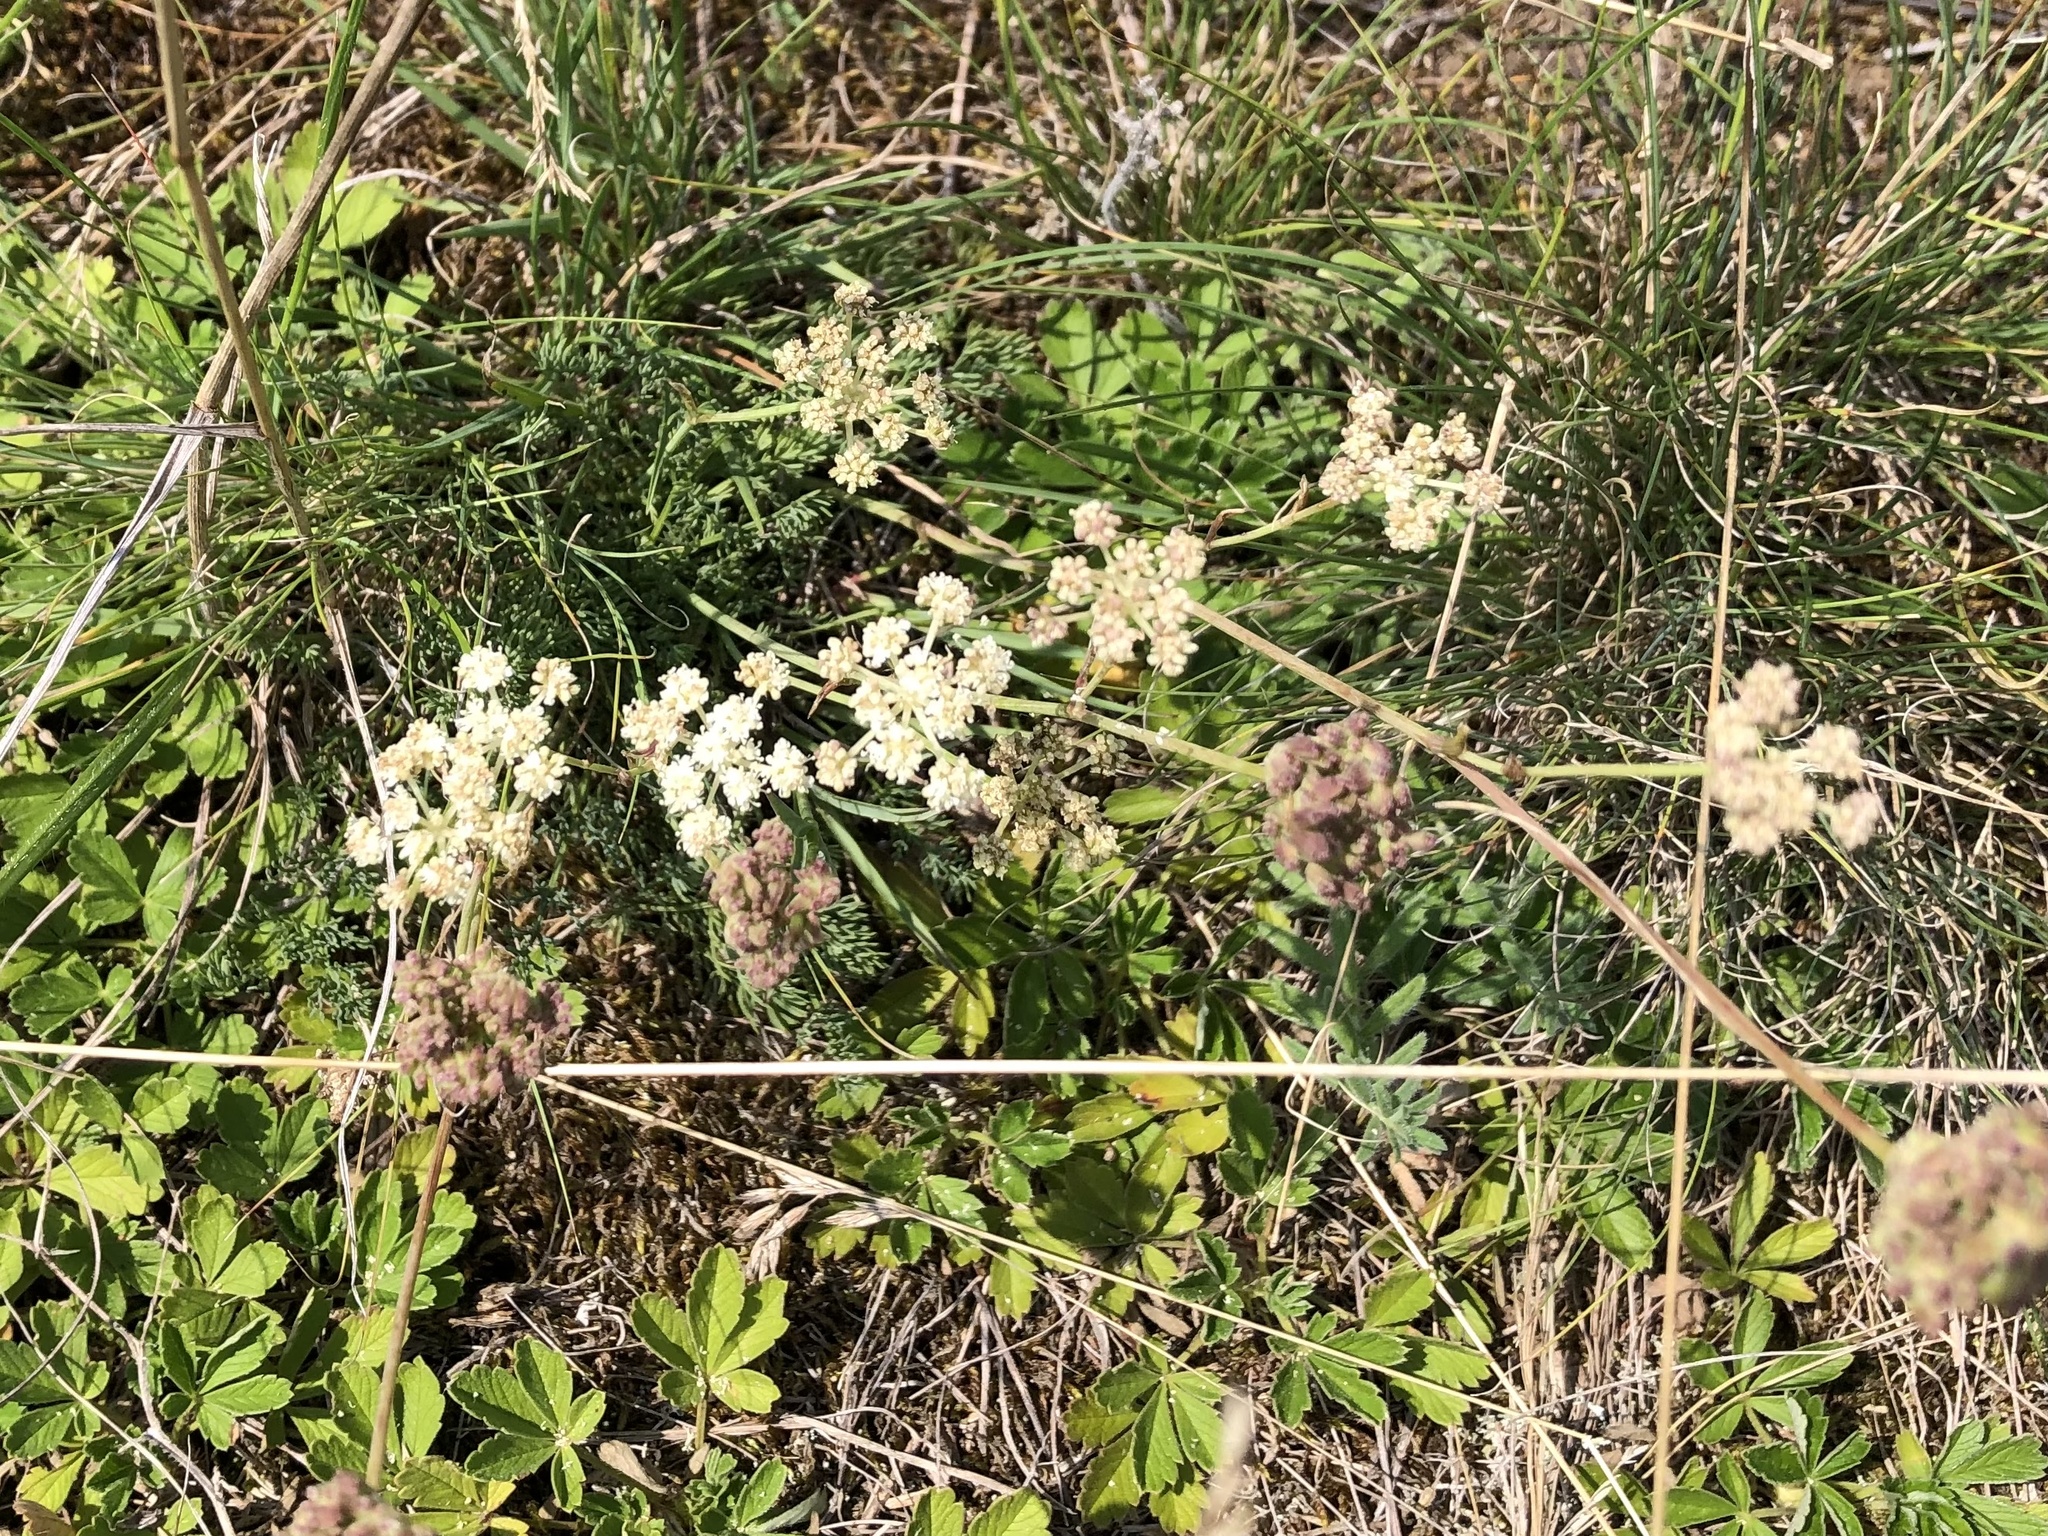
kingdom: Plantae
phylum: Tracheophyta
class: Magnoliopsida
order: Apiales
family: Apiaceae
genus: Hippomarathrum
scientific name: Hippomarathrum
